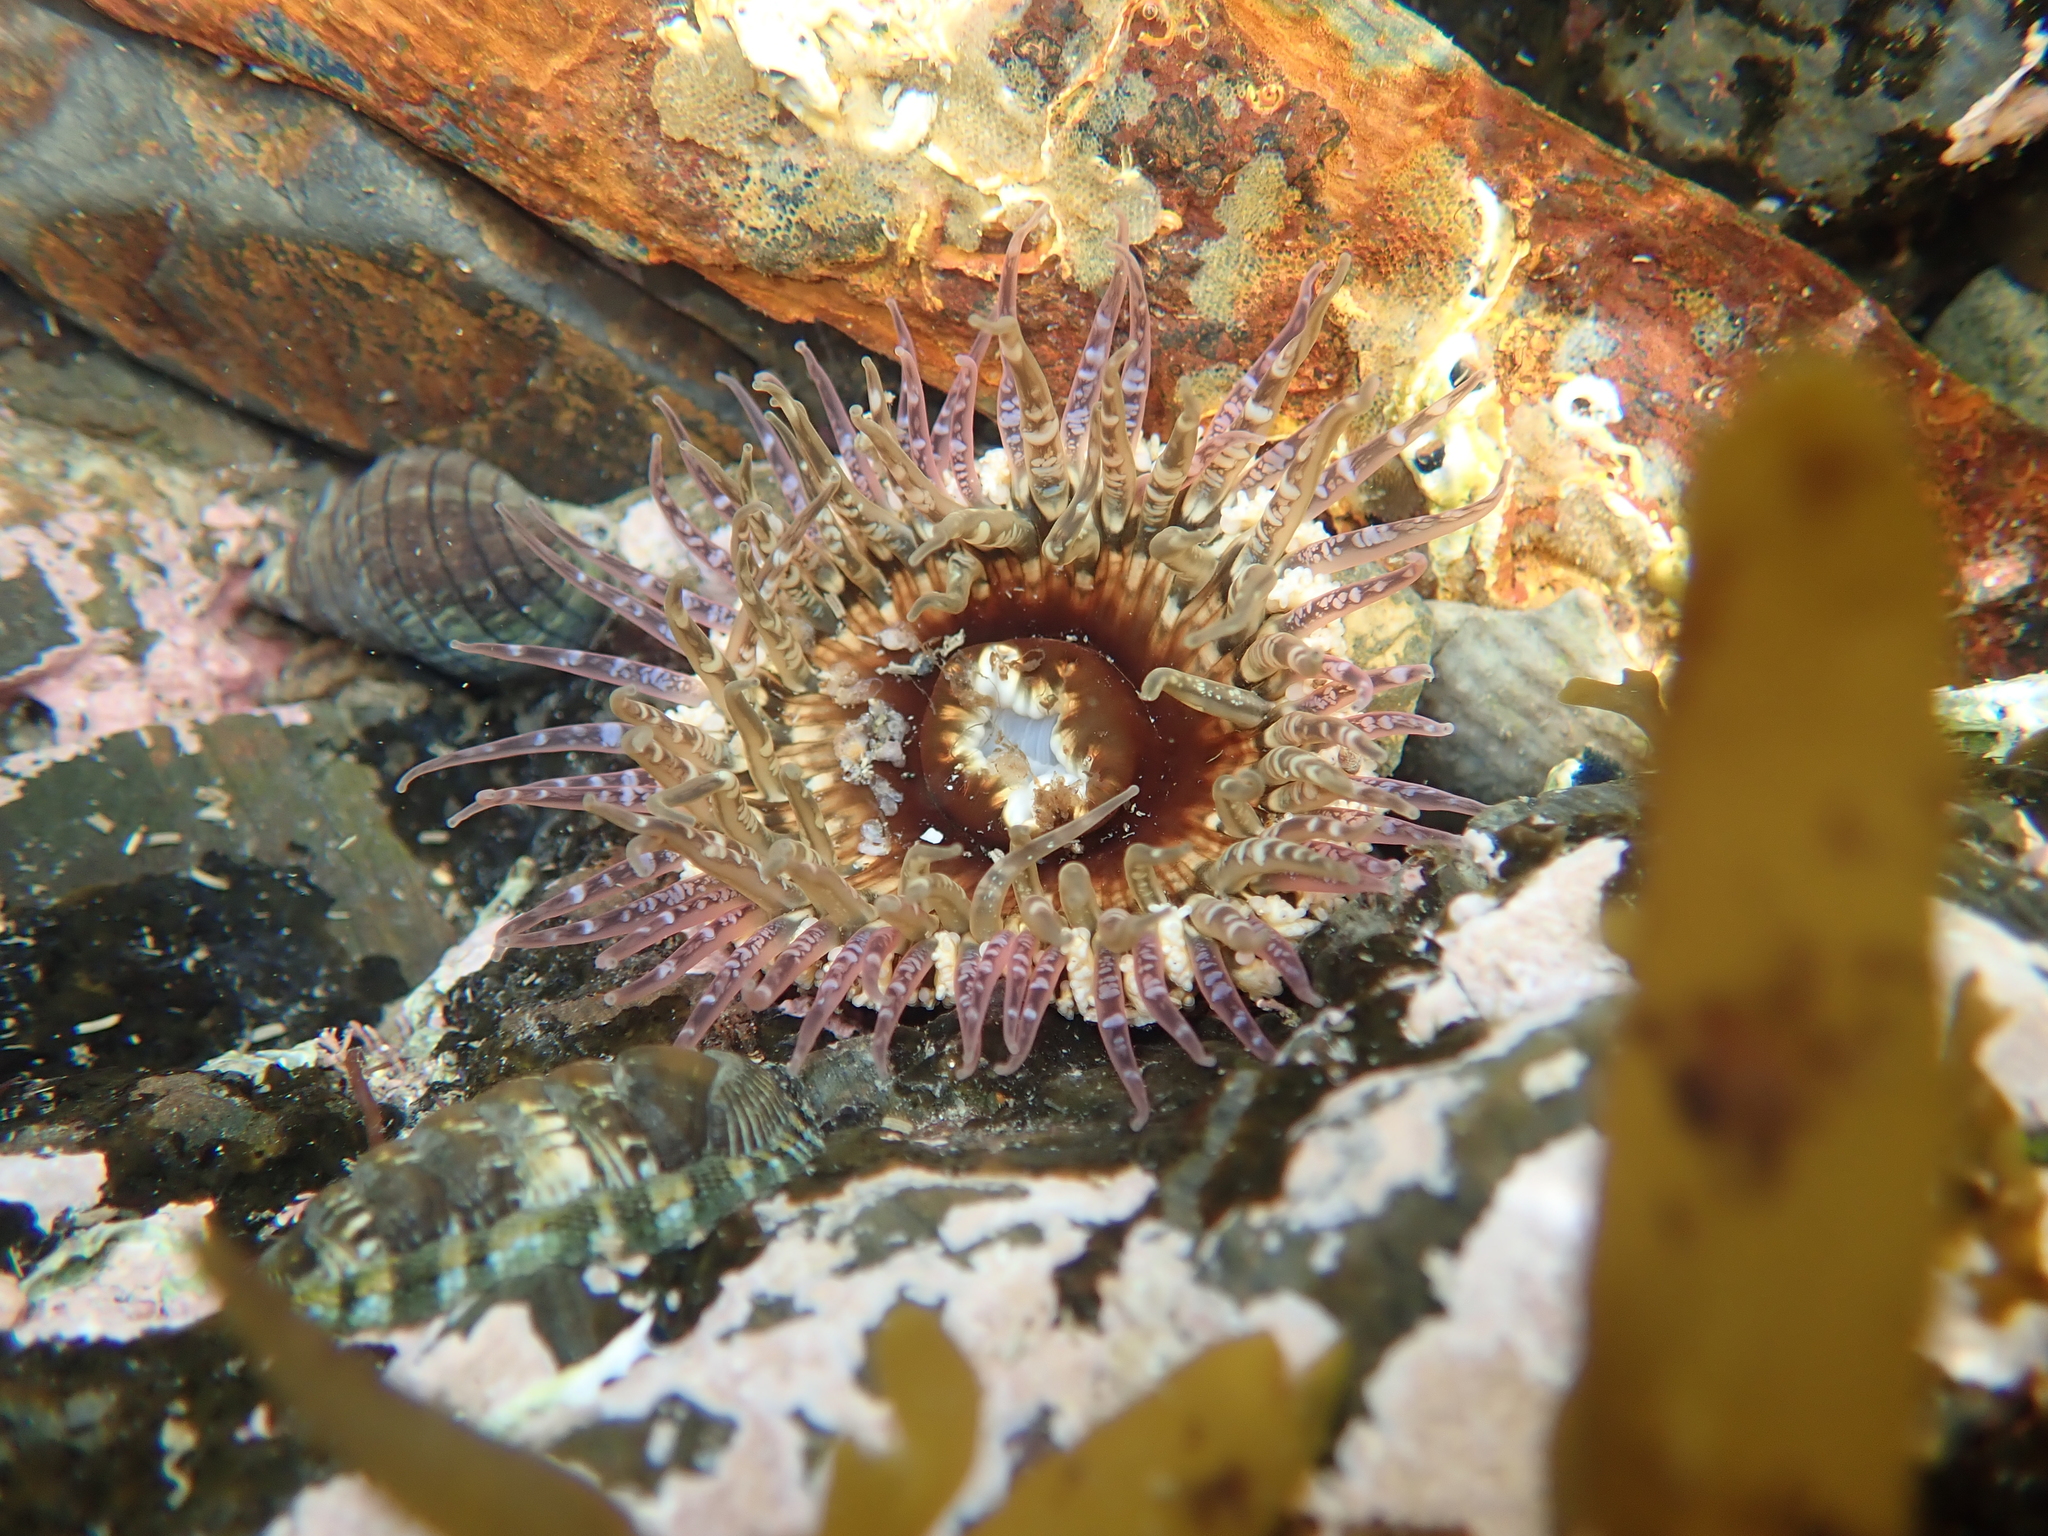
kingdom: Animalia
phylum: Cnidaria
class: Anthozoa
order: Actiniaria
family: Actiniidae
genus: Oulactis
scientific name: Oulactis muscosa
